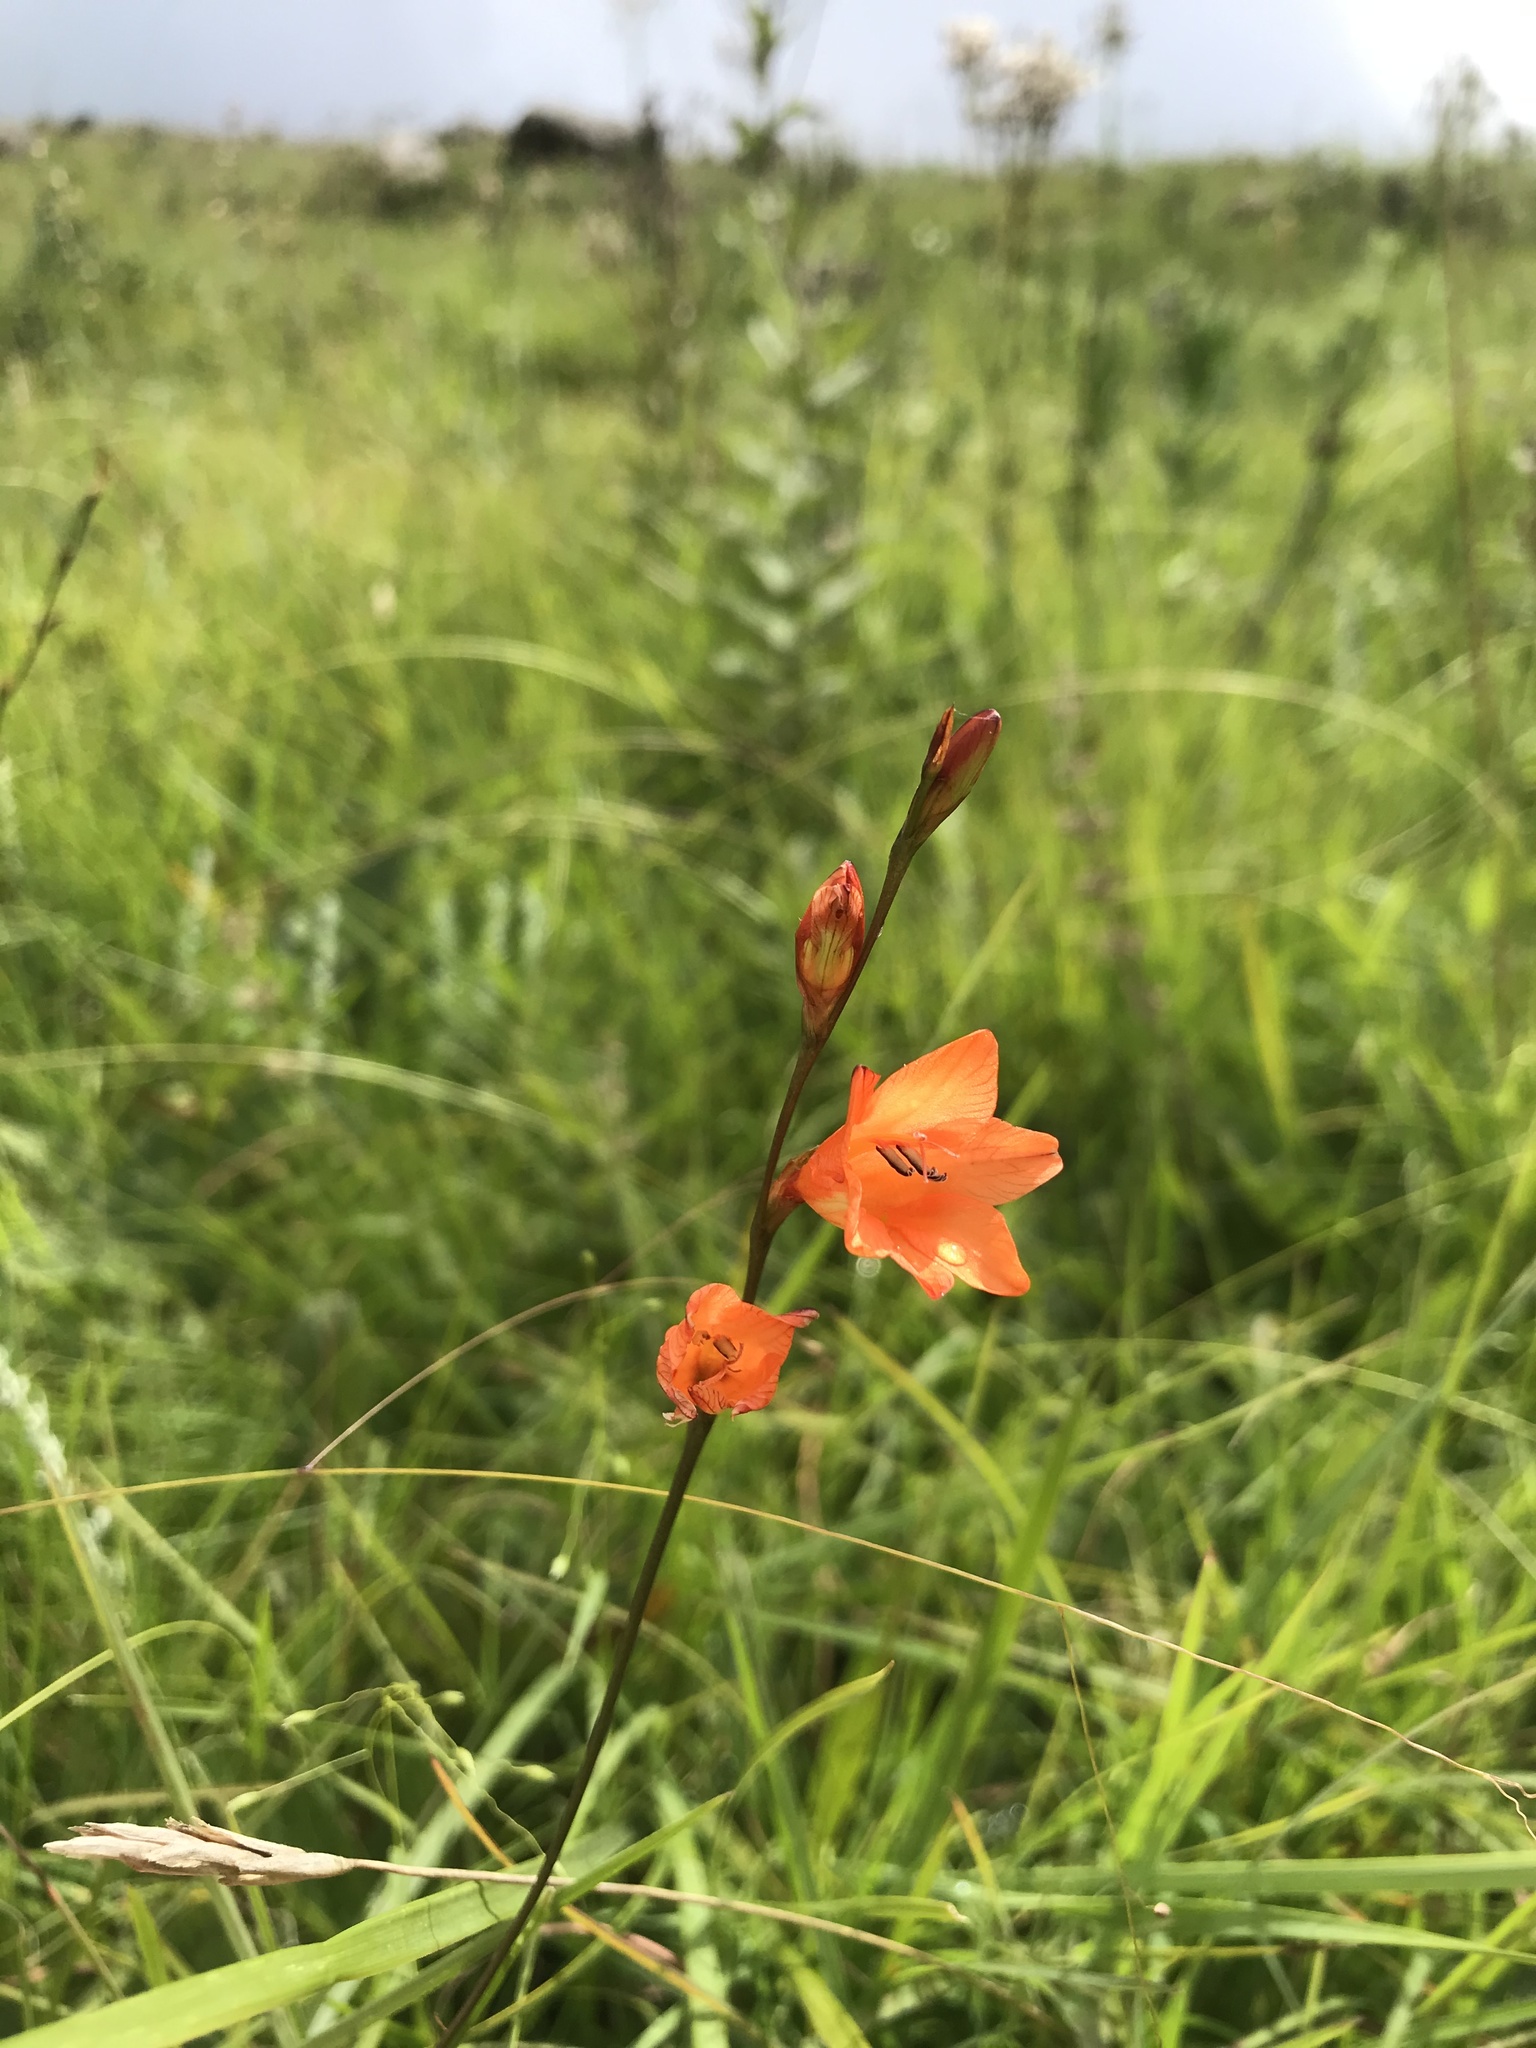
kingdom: Plantae
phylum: Tracheophyta
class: Liliopsida
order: Asparagales
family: Iridaceae
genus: Tritonia
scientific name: Tritonia disticha
